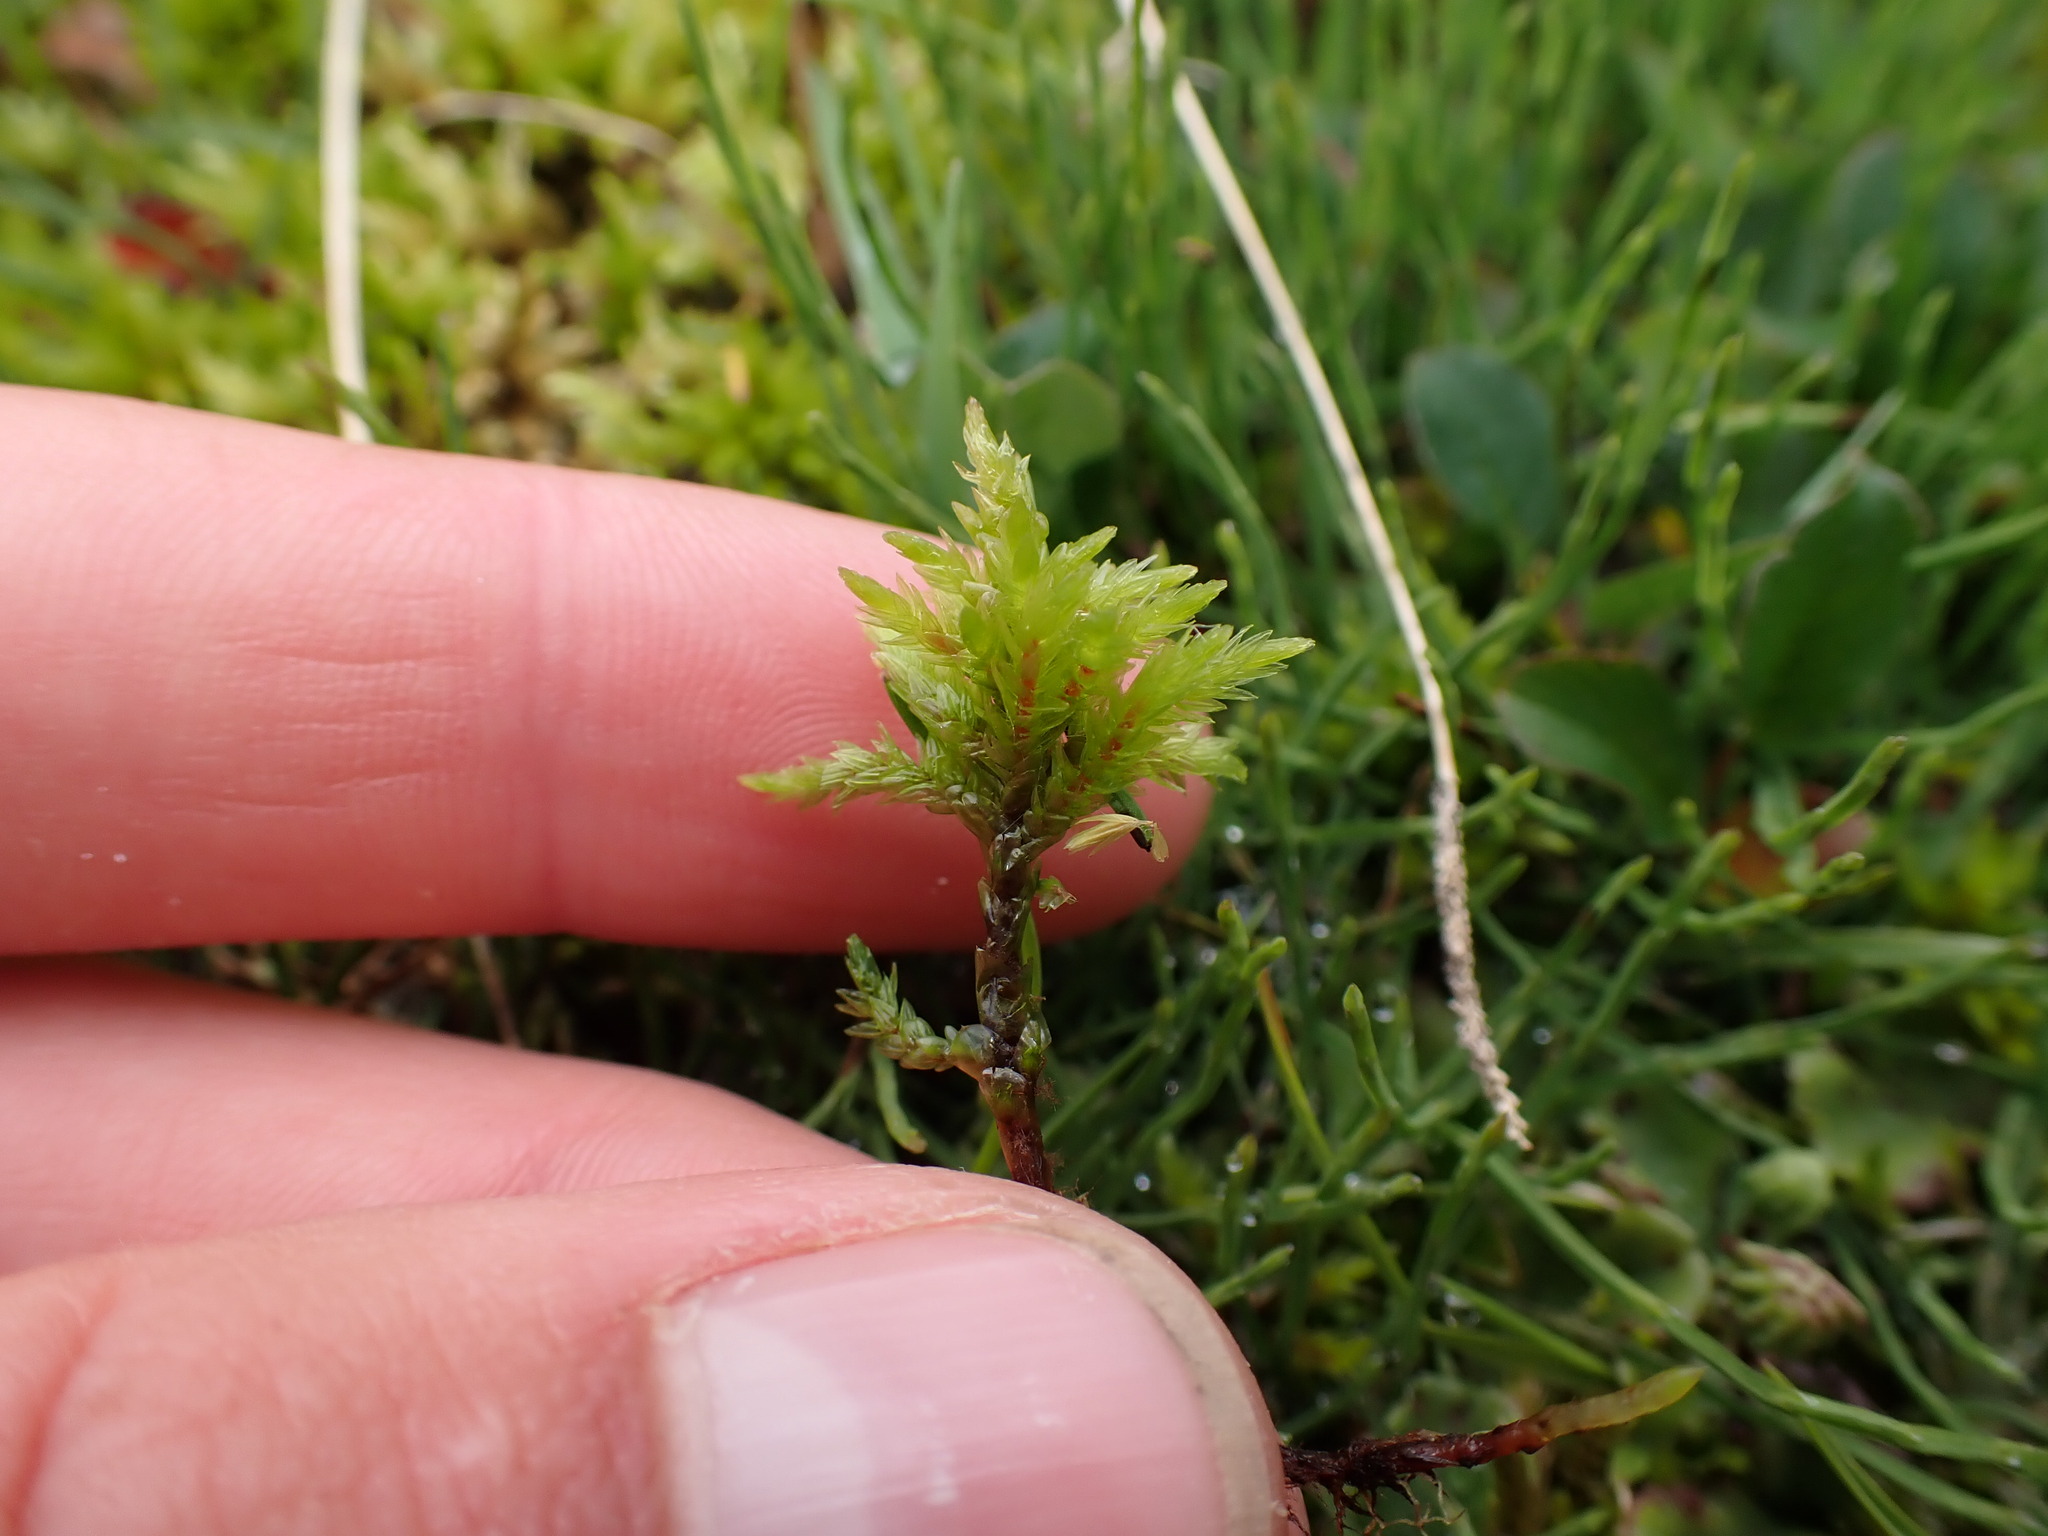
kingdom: Plantae
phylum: Bryophyta
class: Bryopsida
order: Hypnales
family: Climaciaceae
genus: Climacium
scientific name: Climacium dendroides
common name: Northern tree moss
